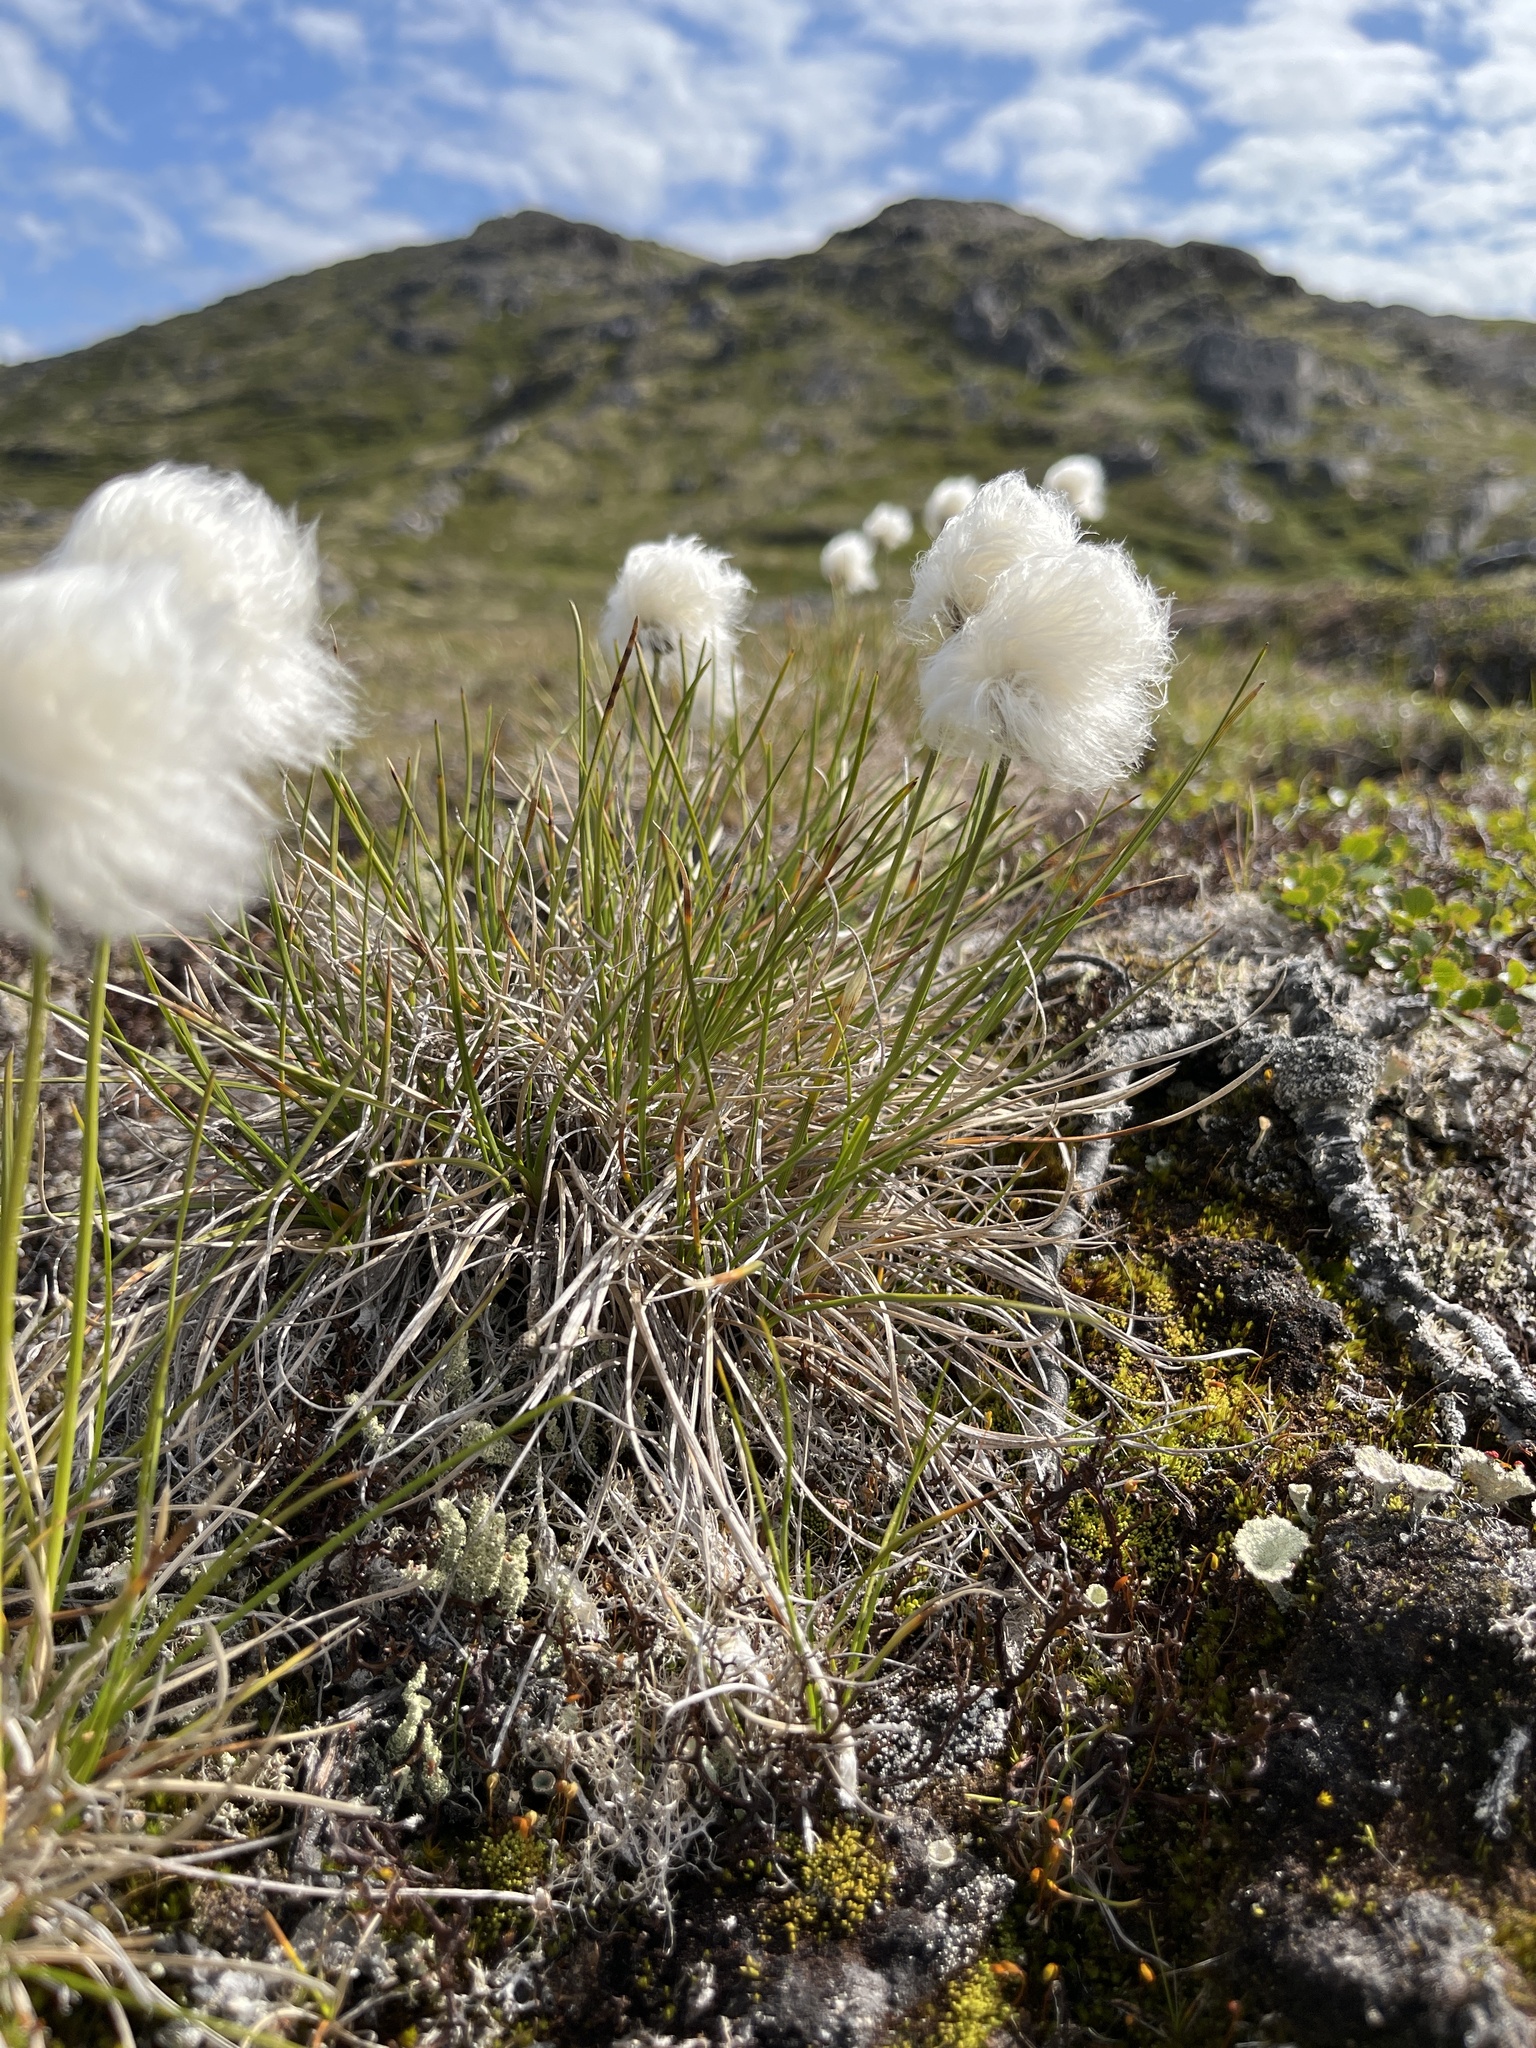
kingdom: Plantae
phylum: Tracheophyta
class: Liliopsida
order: Poales
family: Cyperaceae
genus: Eriophorum
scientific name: Eriophorum vaginatum
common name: Hare's-tail cottongrass
